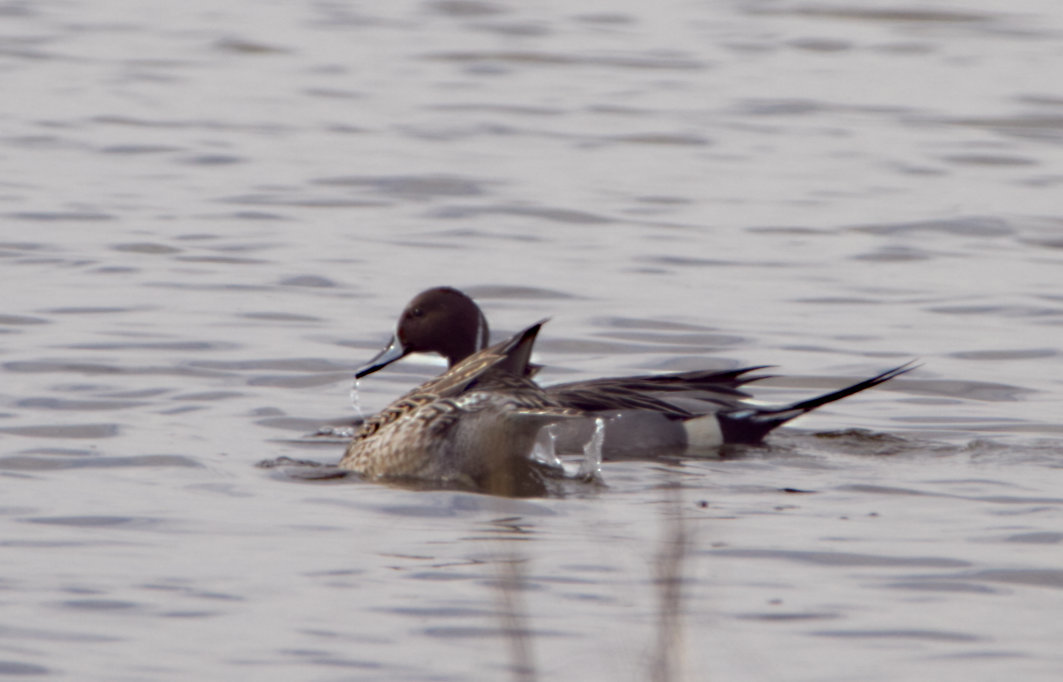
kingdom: Animalia
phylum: Chordata
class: Aves
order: Anseriformes
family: Anatidae
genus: Anas
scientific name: Anas acuta
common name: Northern pintail
